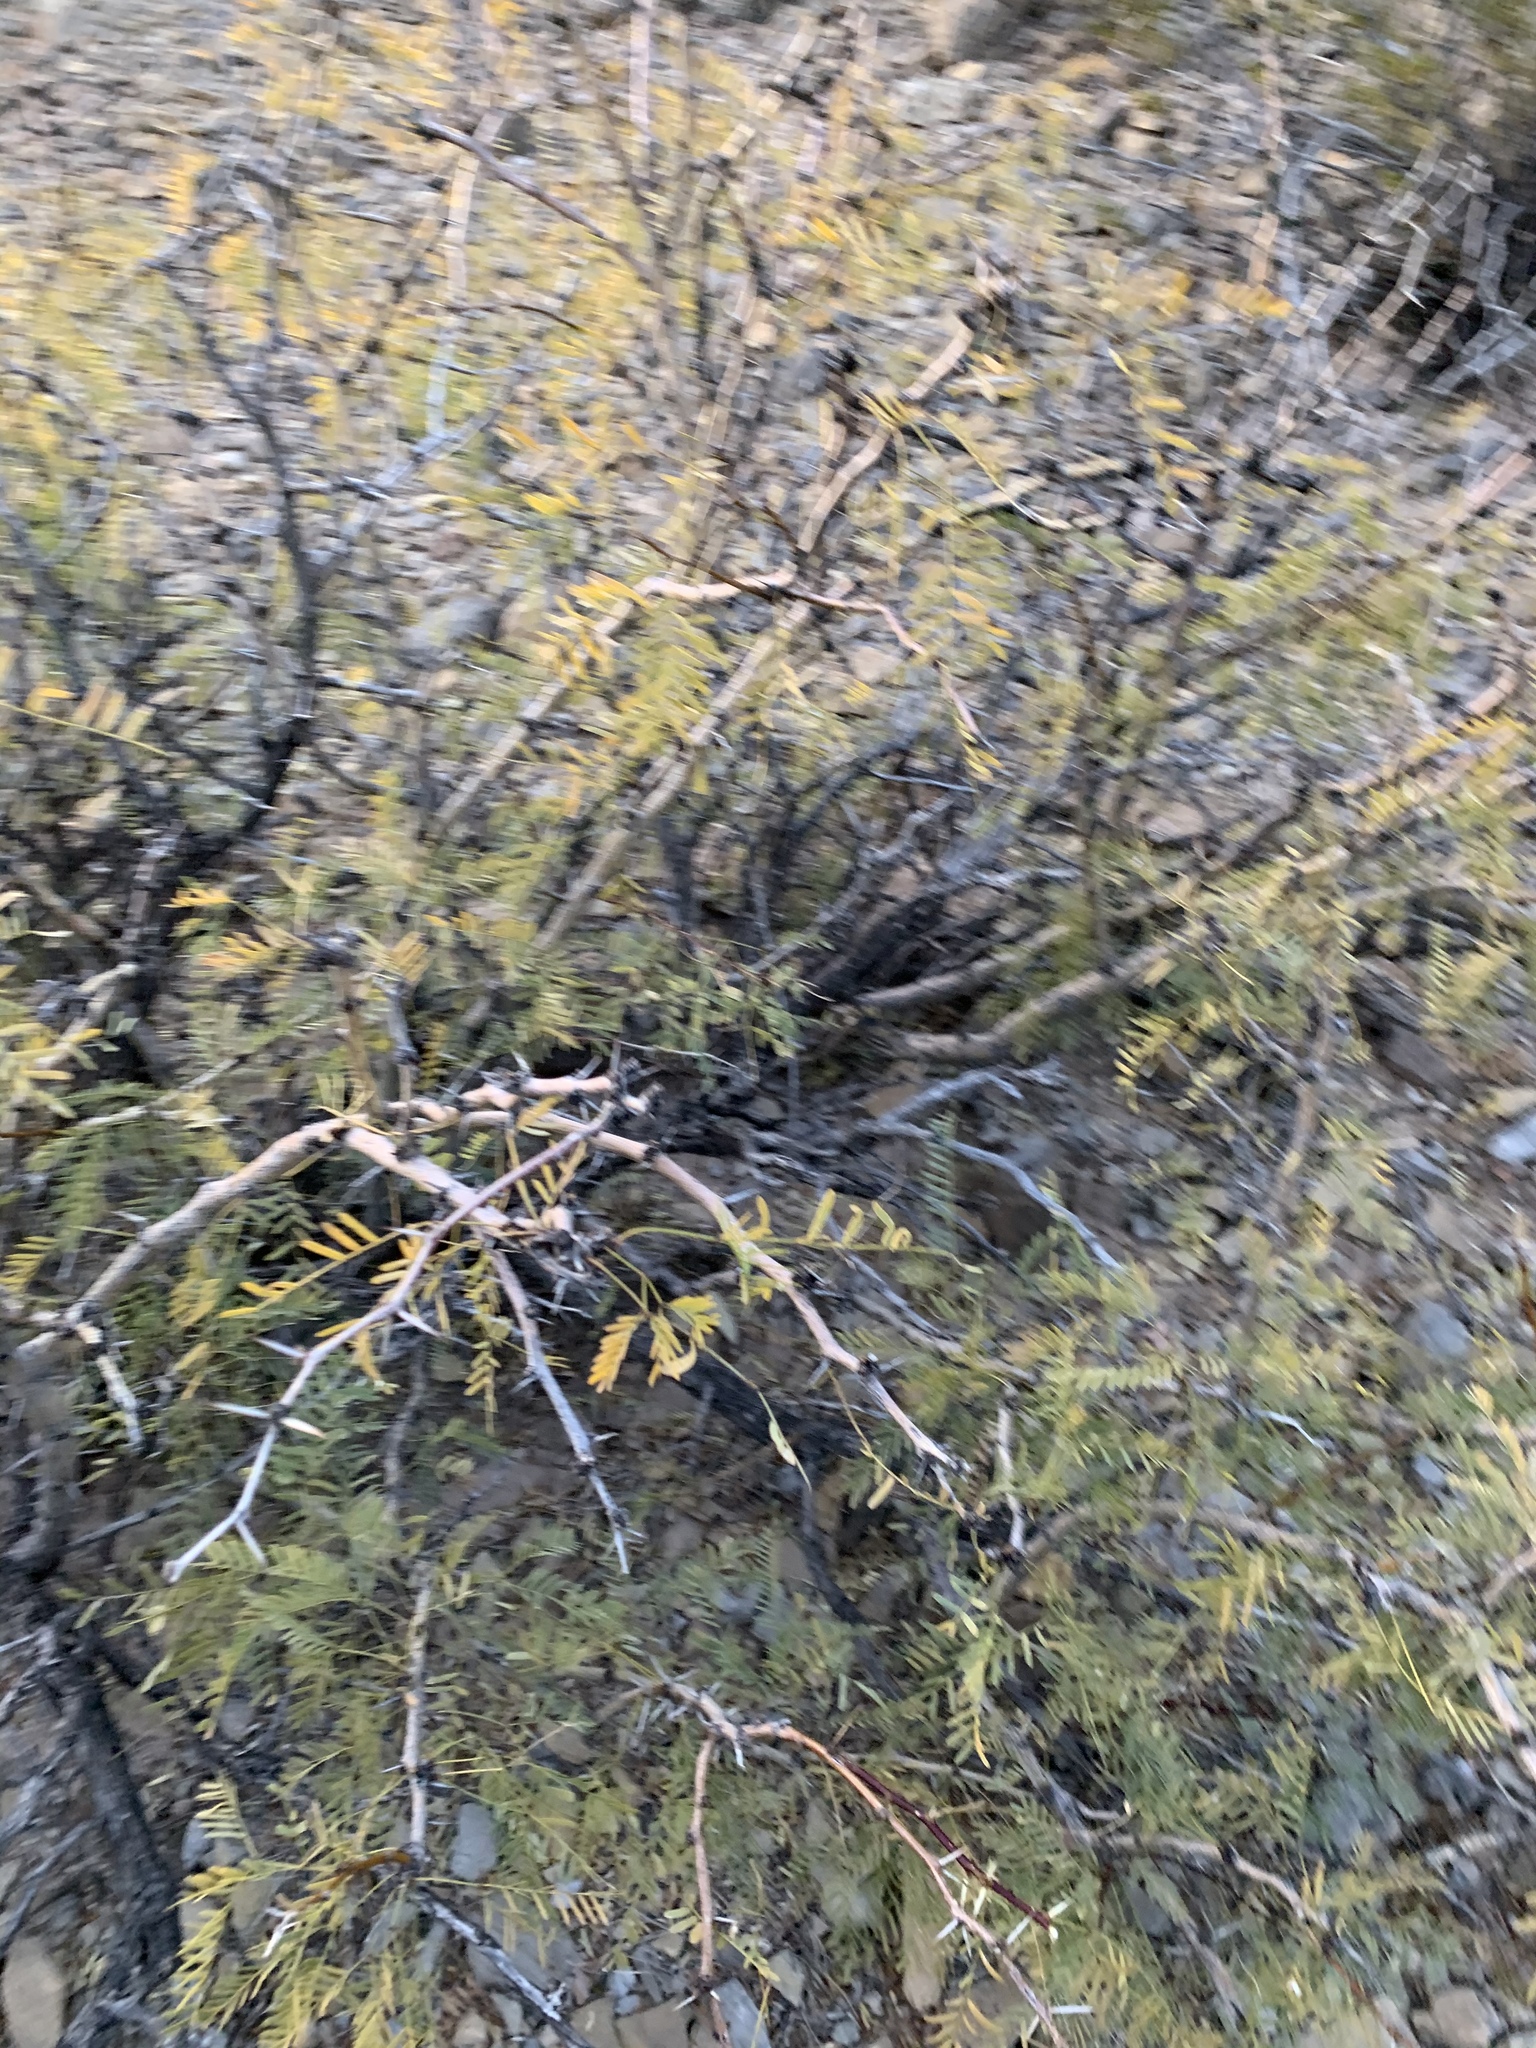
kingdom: Plantae
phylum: Tracheophyta
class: Magnoliopsida
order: Fabales
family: Fabaceae
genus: Prosopis
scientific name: Prosopis glandulosa
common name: Honey mesquite
